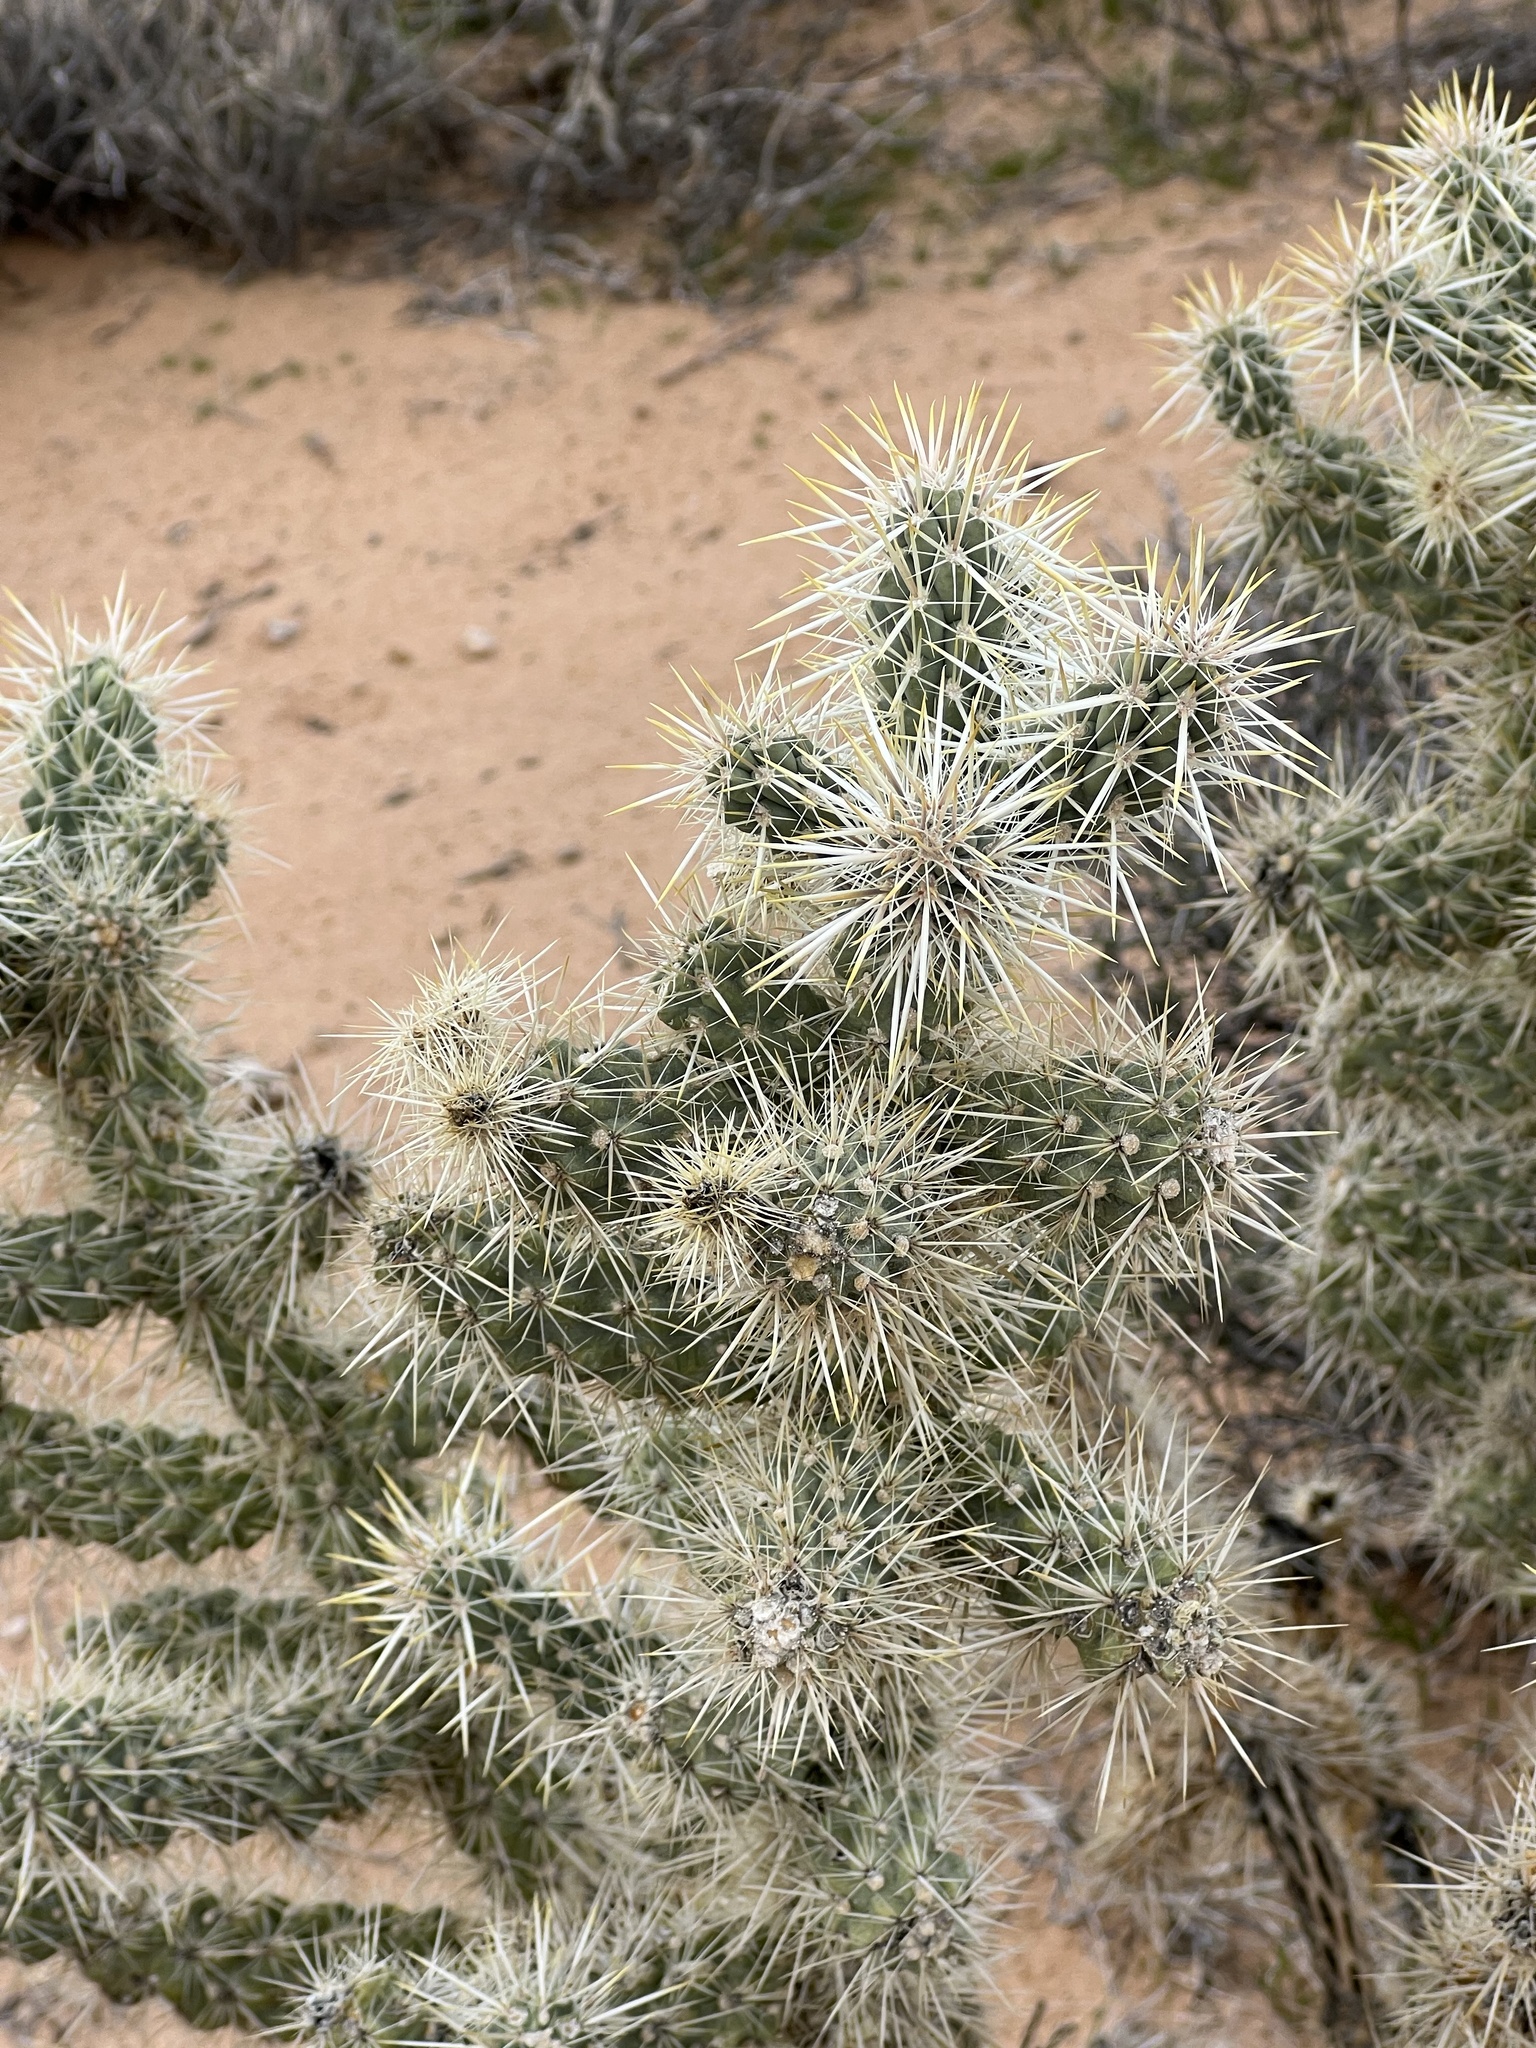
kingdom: Plantae
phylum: Tracheophyta
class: Magnoliopsida
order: Caryophyllales
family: Cactaceae
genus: Cylindropuntia
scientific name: Cylindropuntia echinocarpa
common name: Ground cholla
